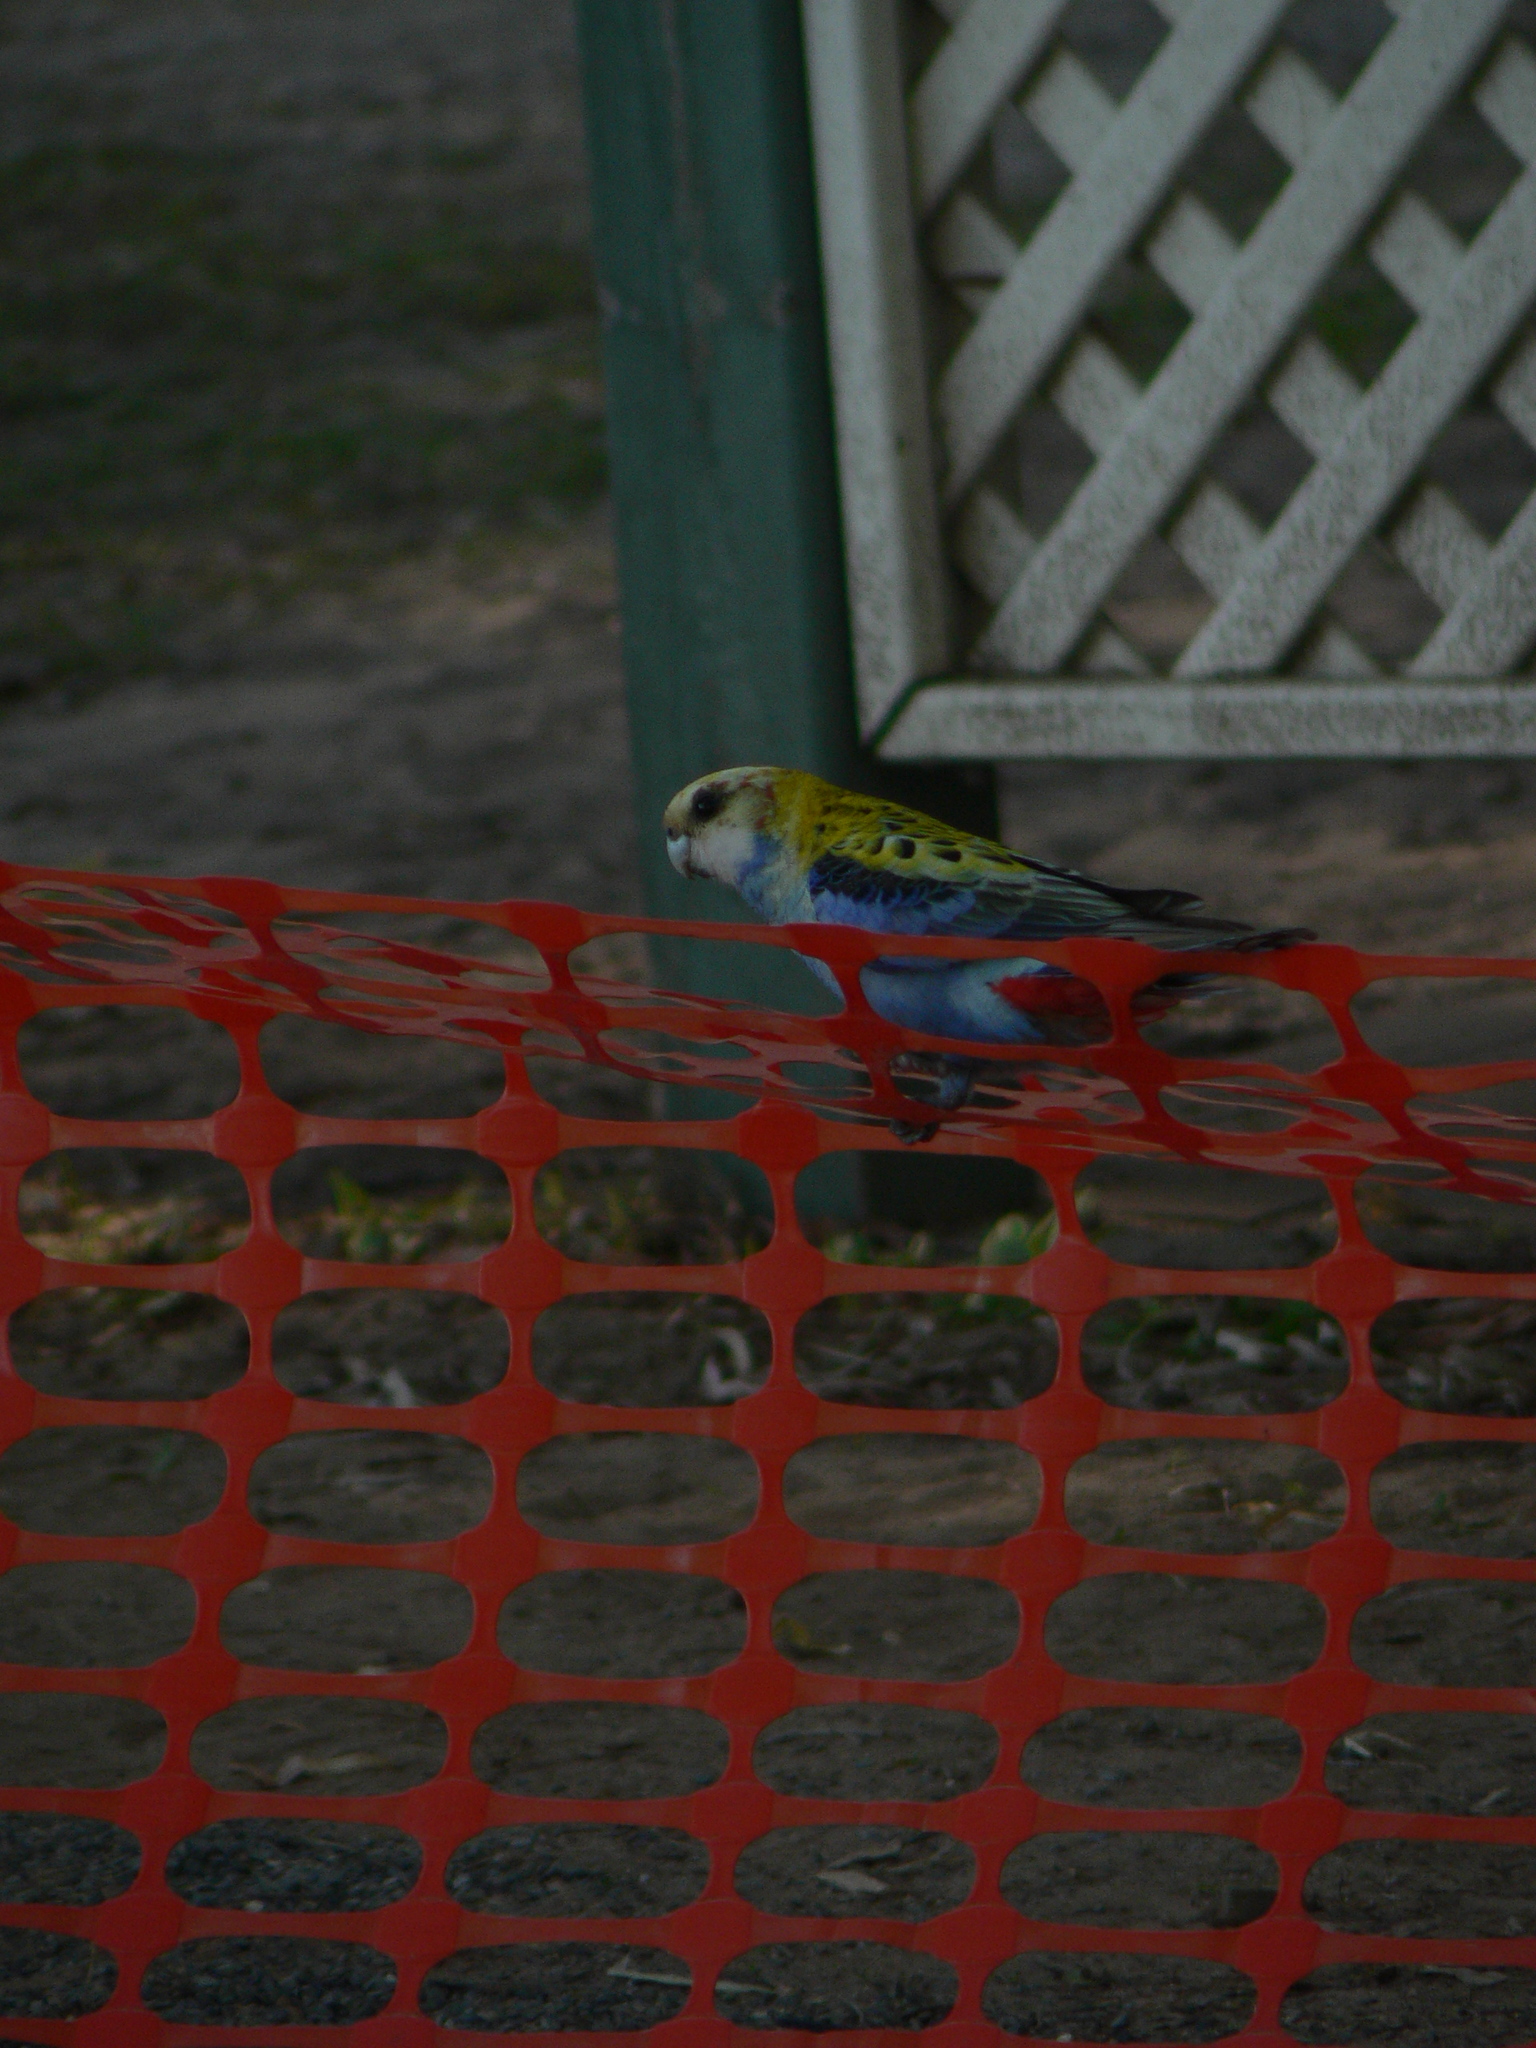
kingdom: Animalia
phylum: Chordata
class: Aves
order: Psittaciformes
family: Psittacidae
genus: Platycercus
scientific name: Platycercus adscitus
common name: Pale-headed rosella
